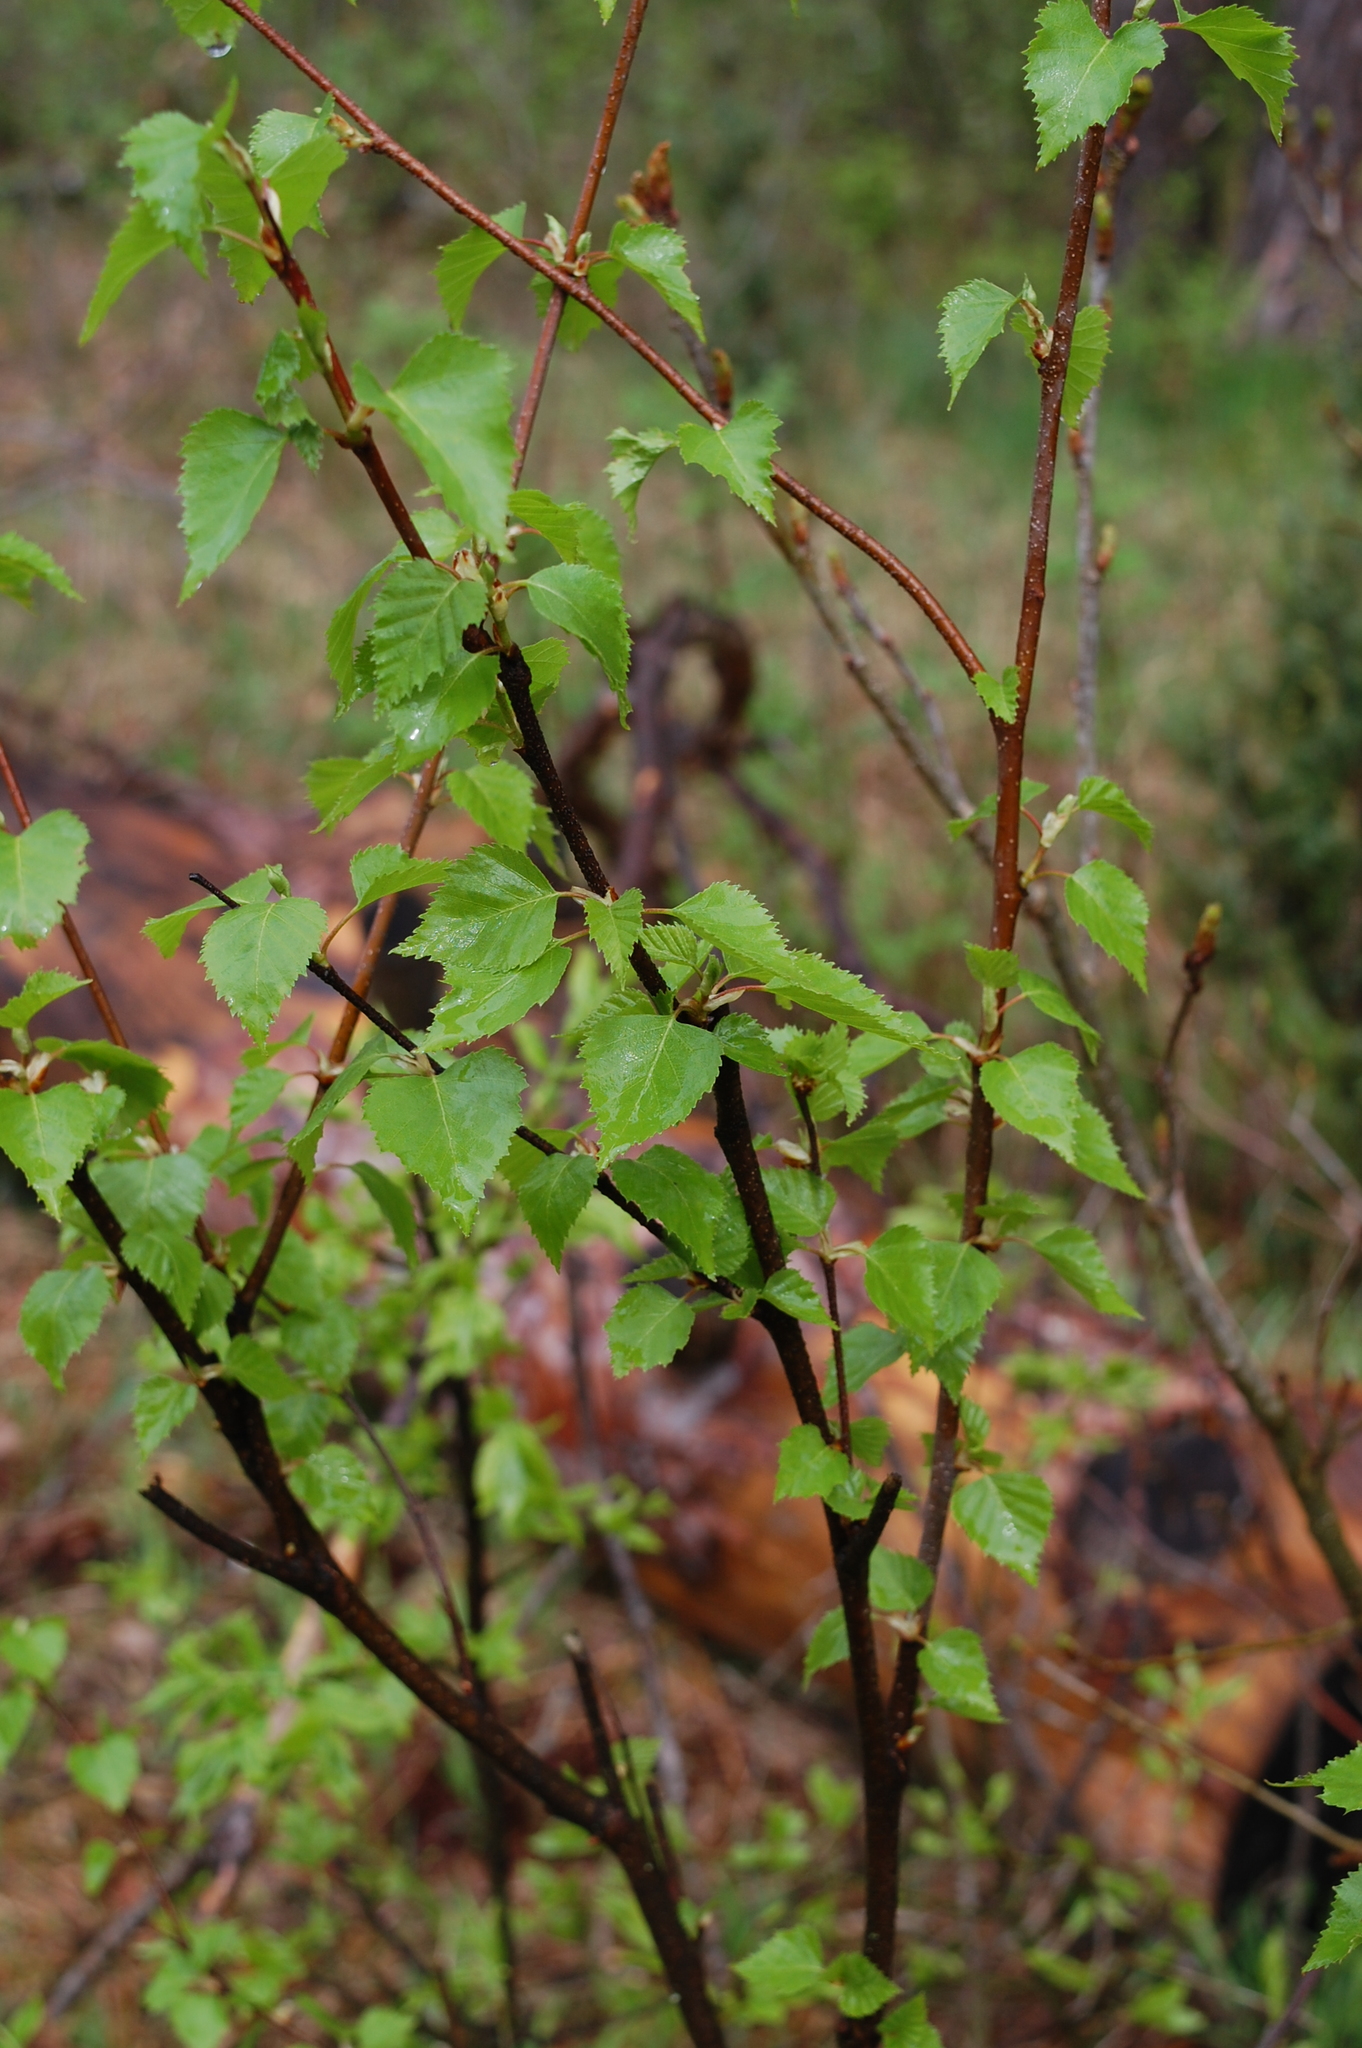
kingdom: Plantae
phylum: Tracheophyta
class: Magnoliopsida
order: Fagales
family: Betulaceae
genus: Betula
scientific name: Betula pendula
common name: Silver birch
